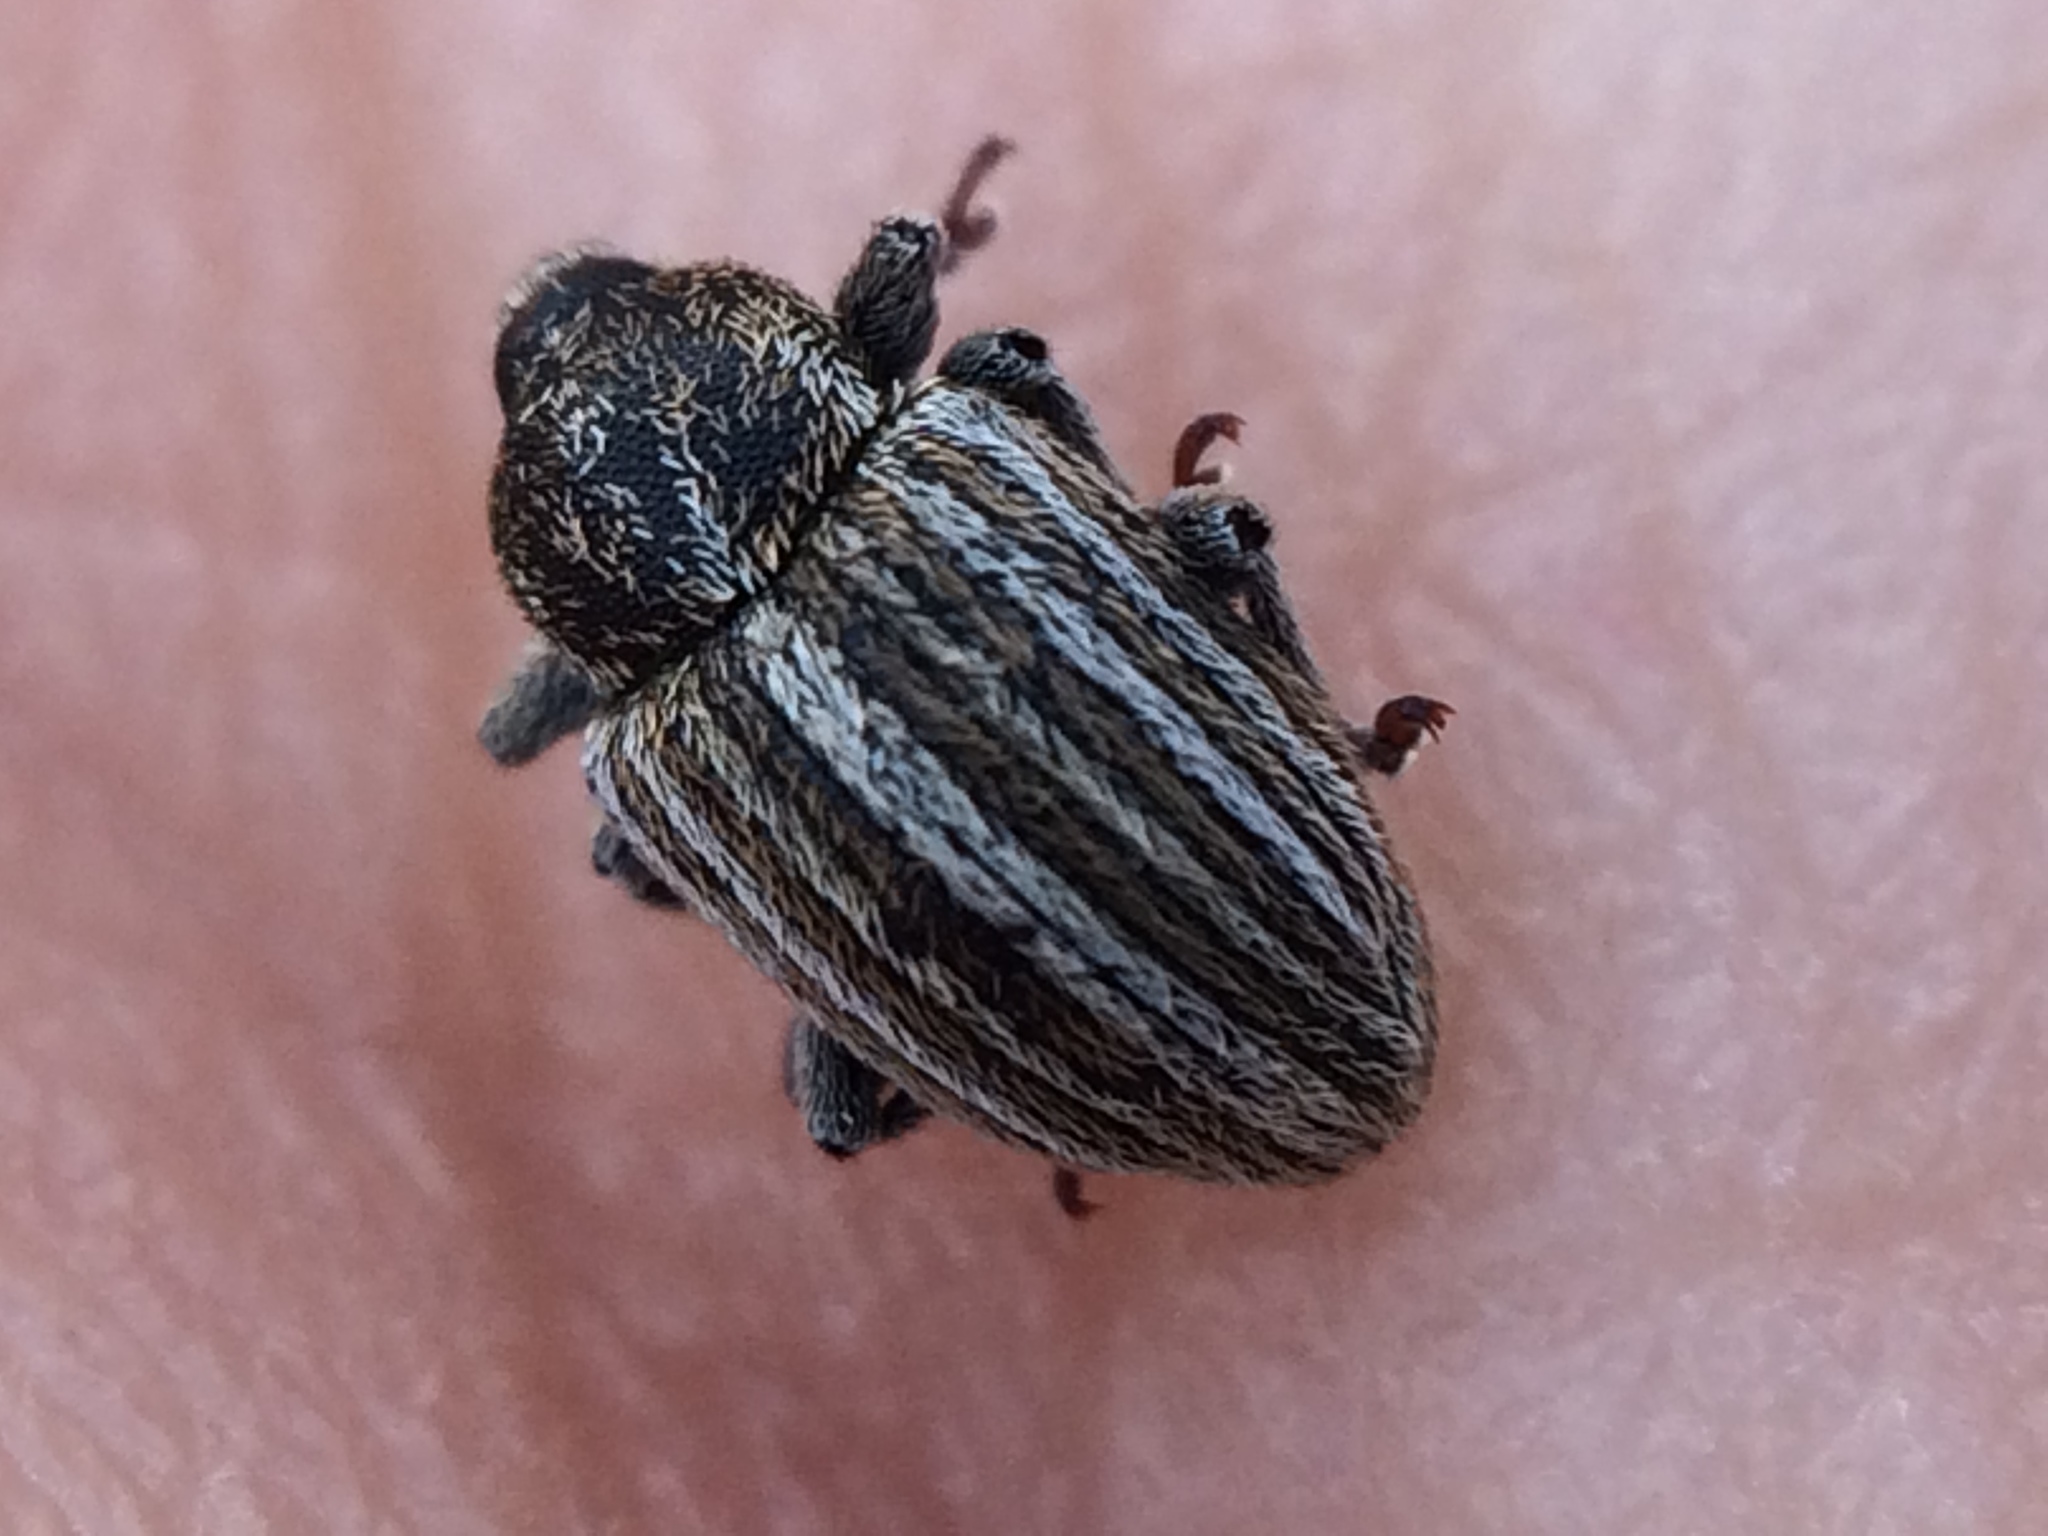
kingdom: Animalia
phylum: Arthropoda
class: Insecta
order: Coleoptera
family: Curculionidae
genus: Tychius
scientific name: Tychius lineellus
